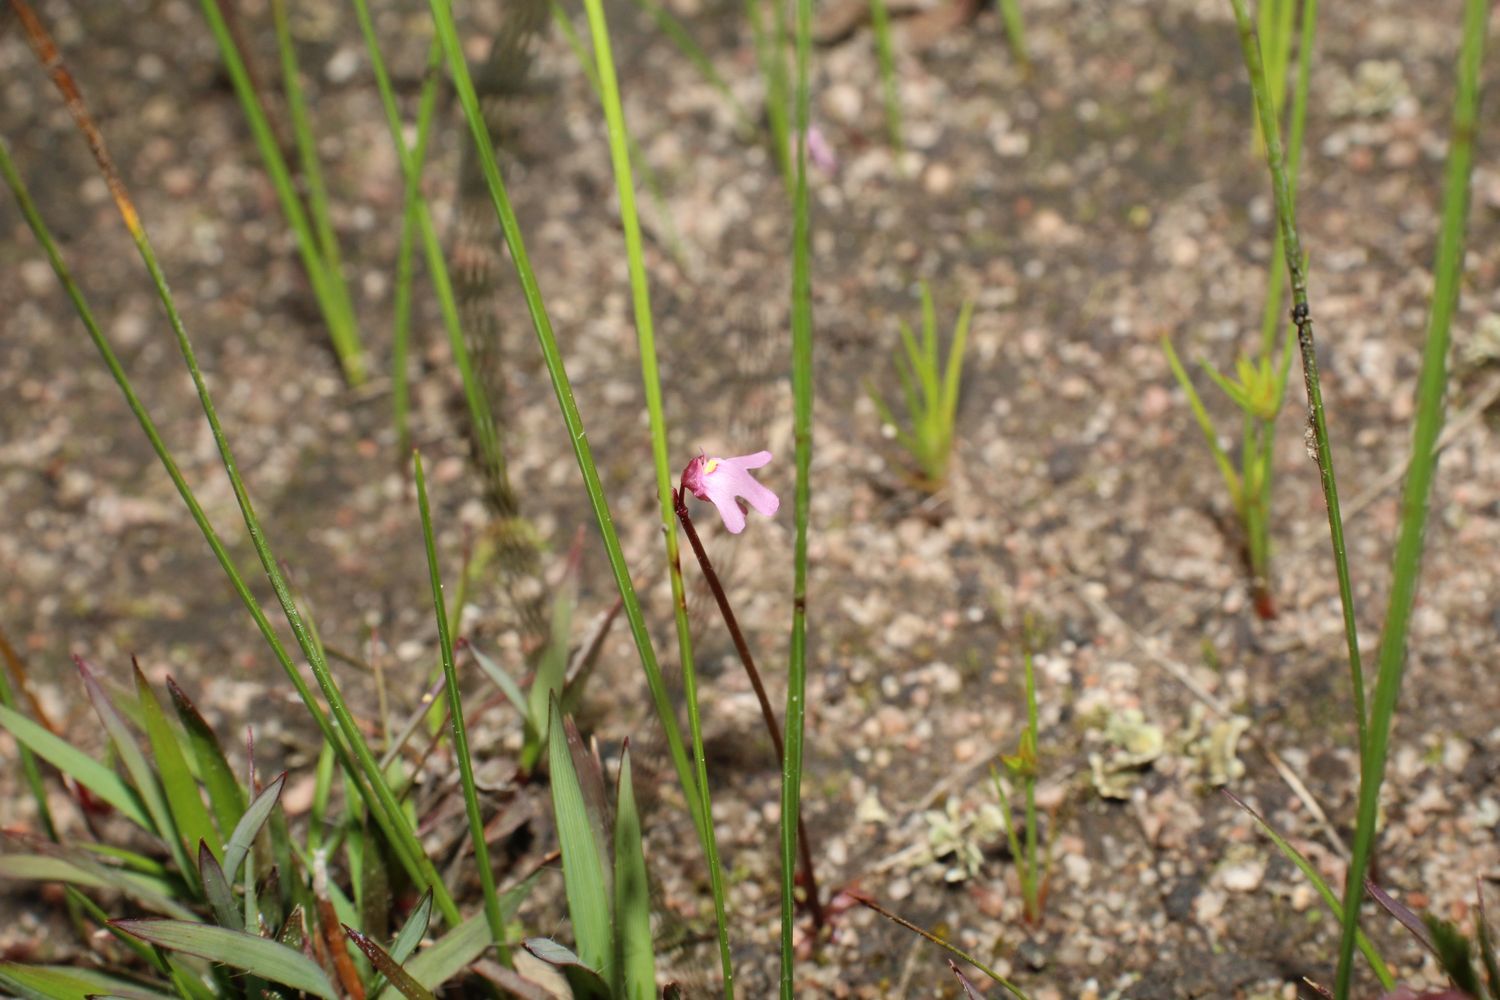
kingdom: Plantae
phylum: Tracheophyta
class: Magnoliopsida
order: Lamiales
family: Lentibulariaceae
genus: Utricularia
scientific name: Utricularia tenella
